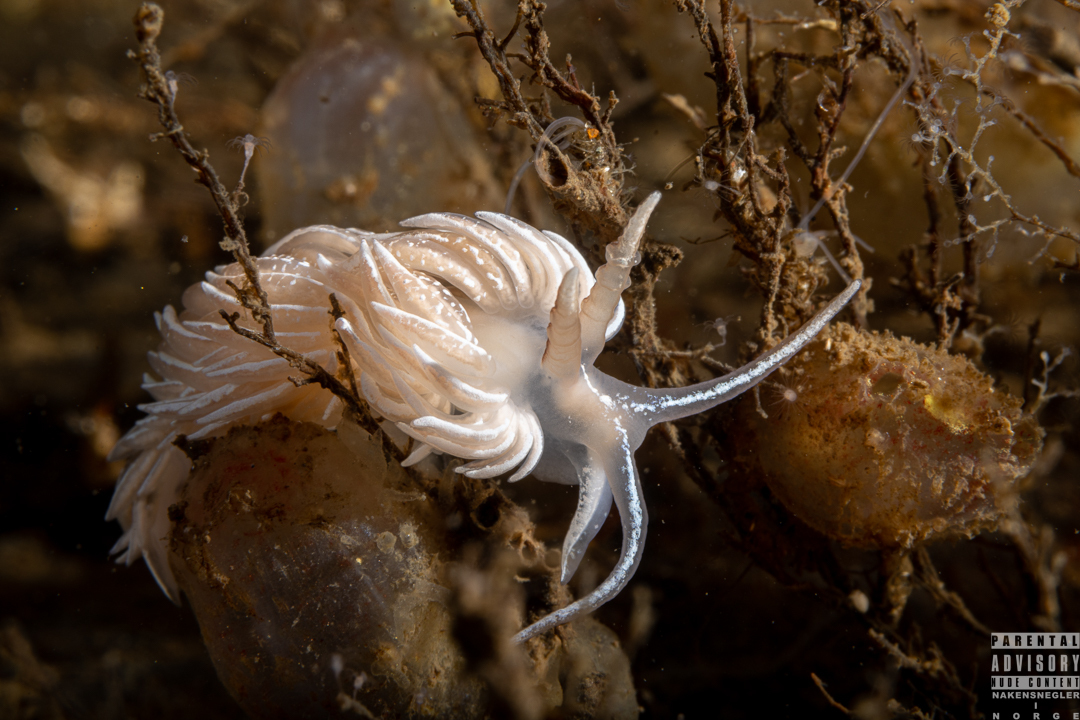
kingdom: Animalia
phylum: Mollusca
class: Gastropoda
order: Nudibranchia
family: Facelinidae
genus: Favorinus
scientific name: Favorinus blianus
